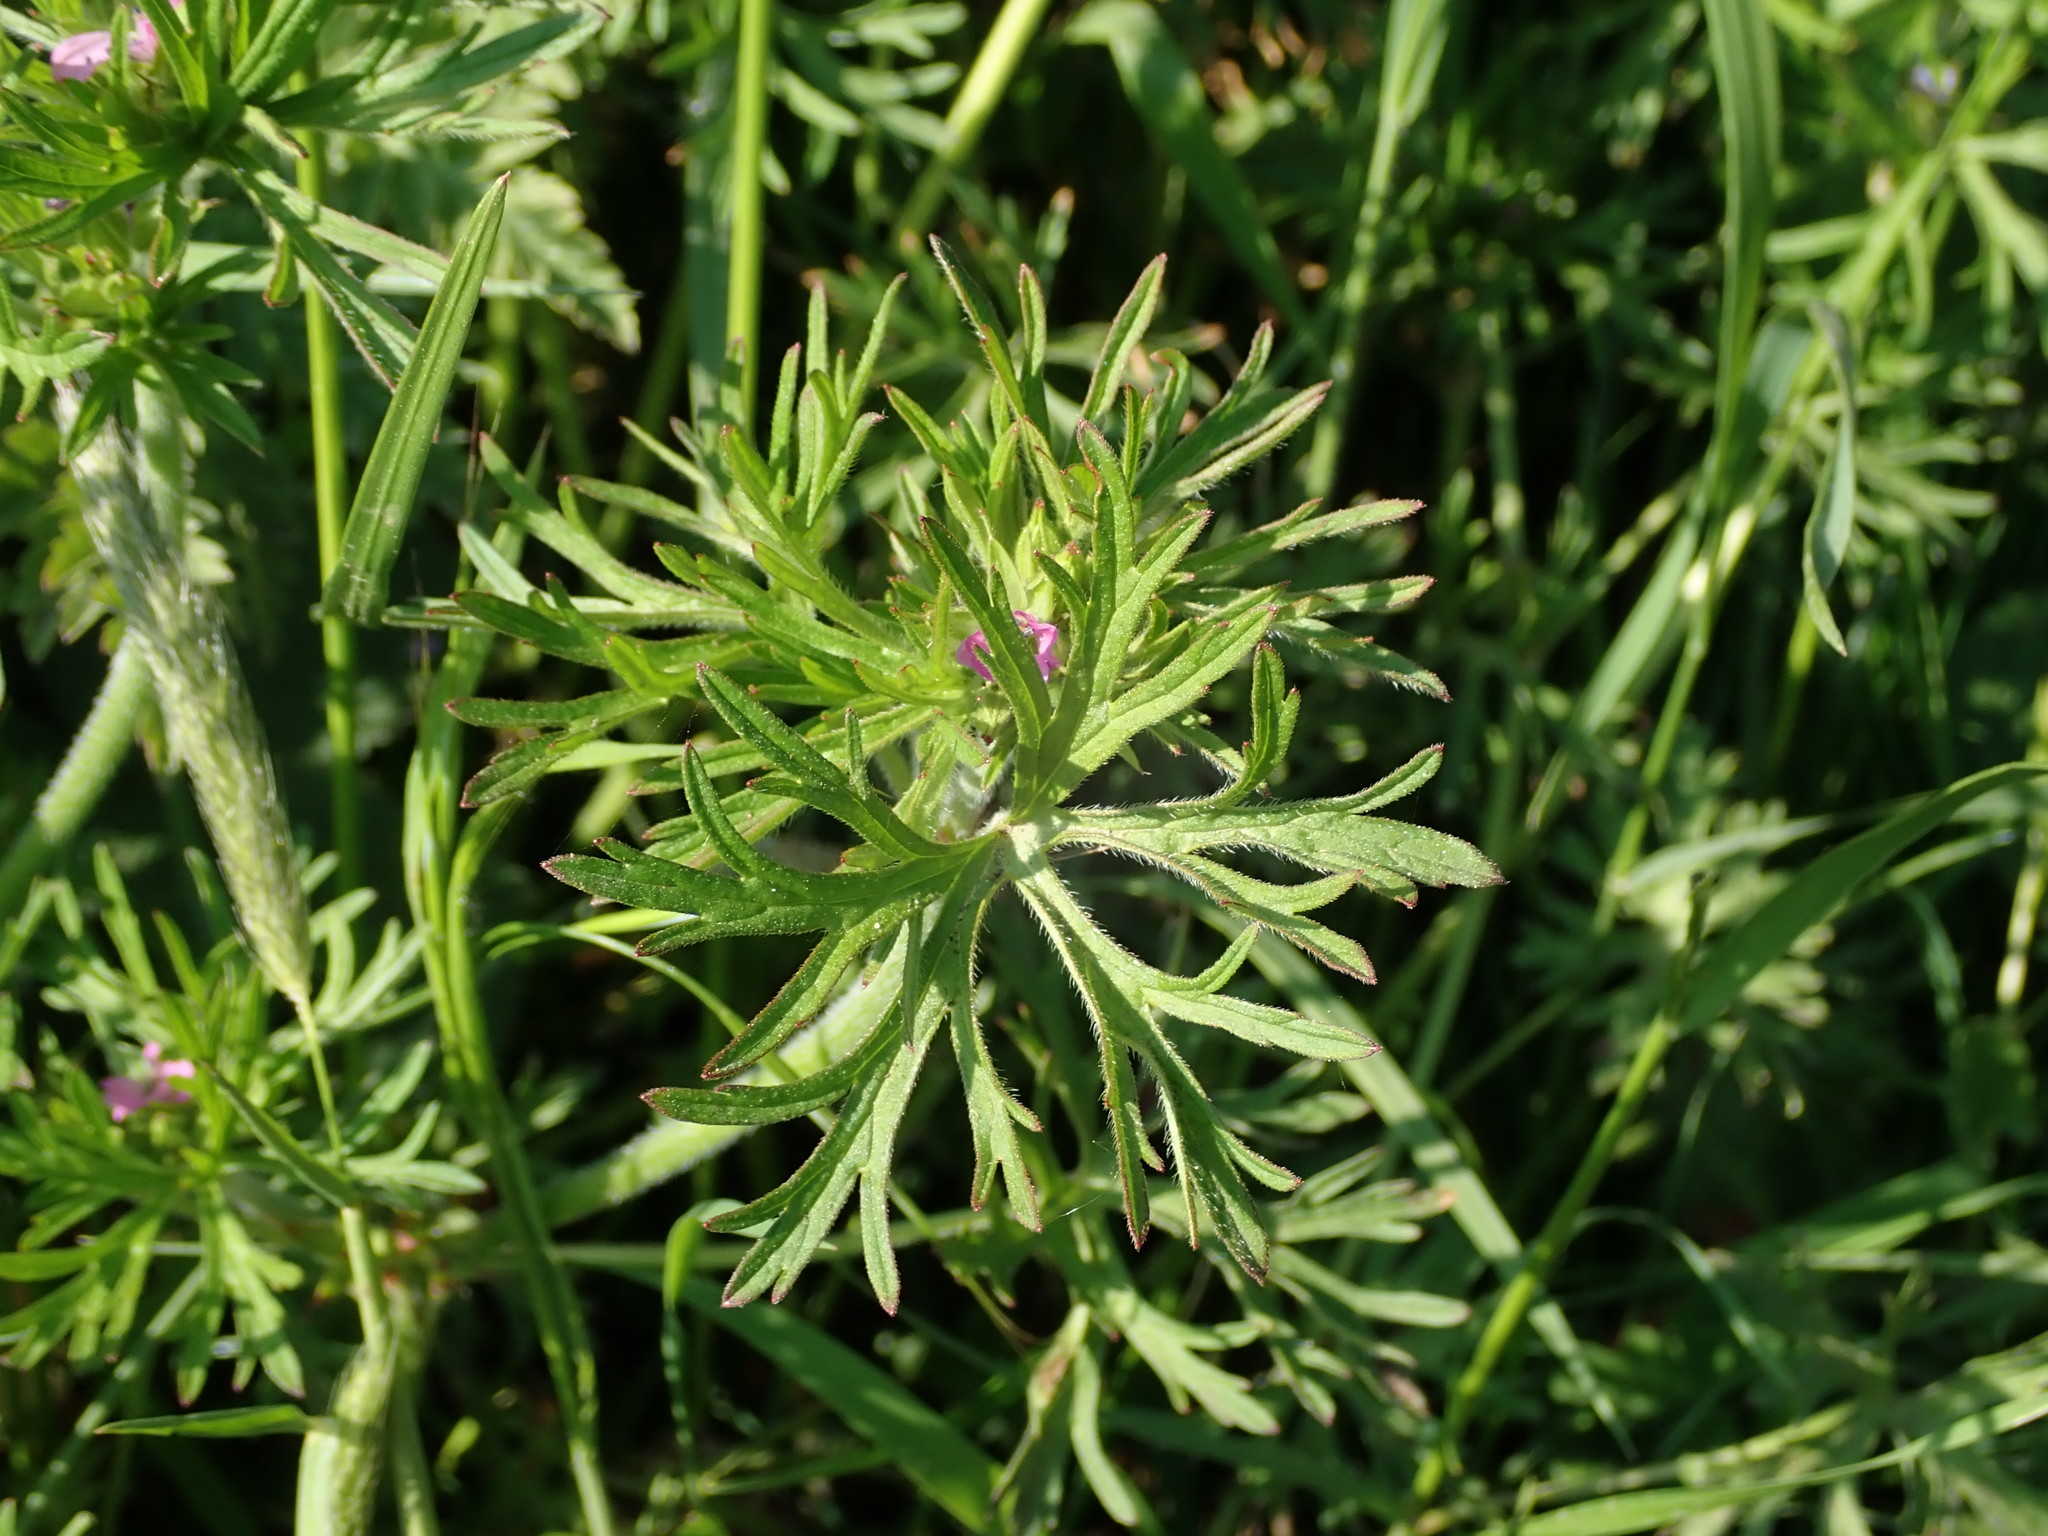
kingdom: Plantae
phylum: Tracheophyta
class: Magnoliopsida
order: Geraniales
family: Geraniaceae
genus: Geranium
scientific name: Geranium dissectum
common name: Cut-leaved crane's-bill
